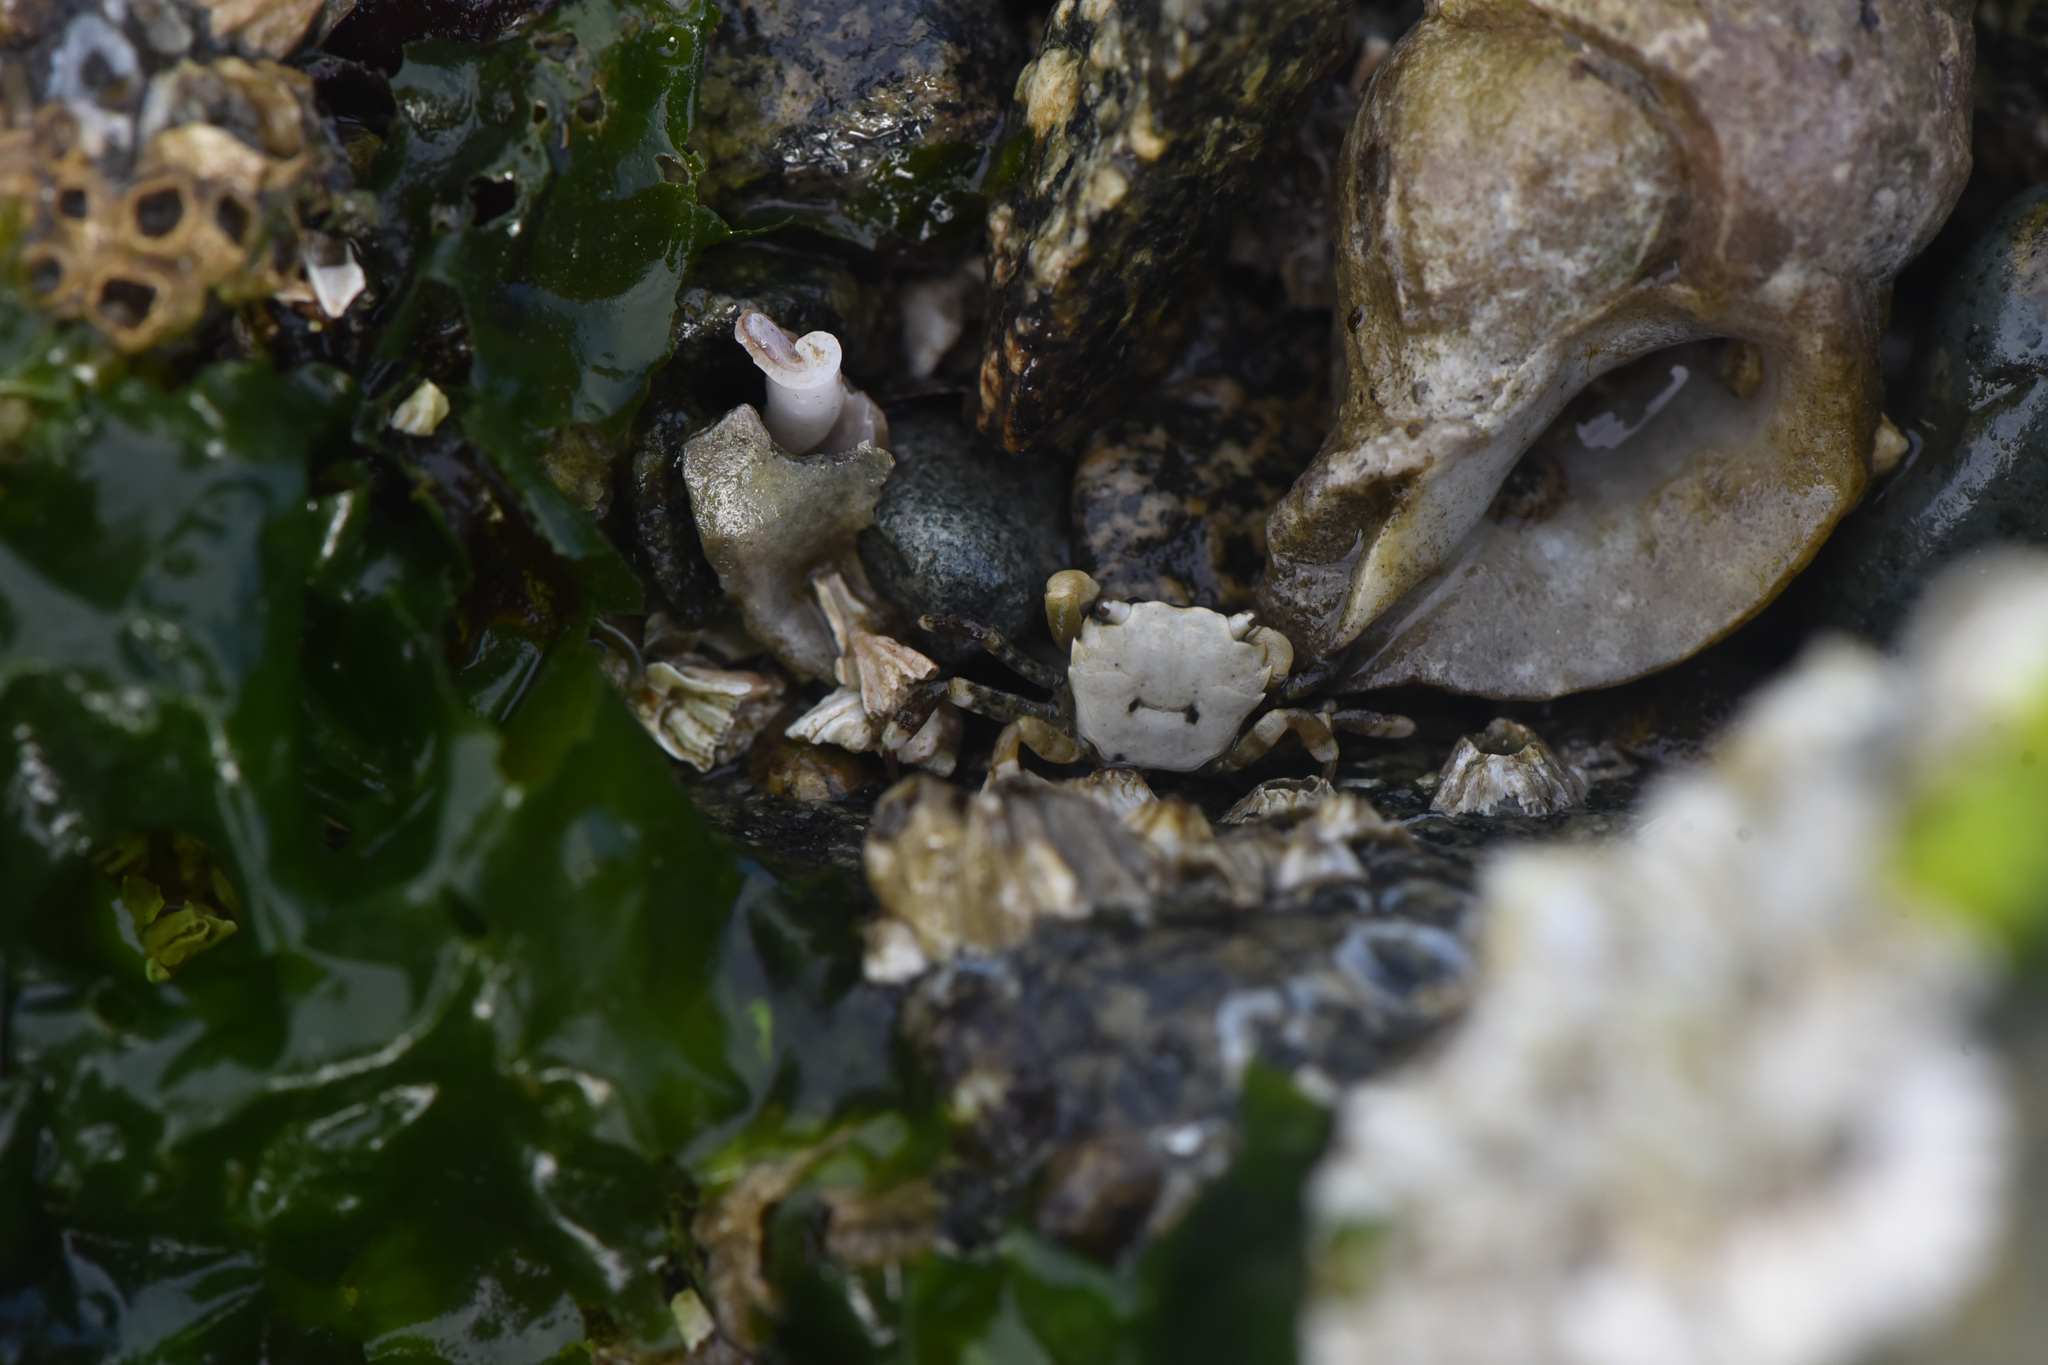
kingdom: Animalia
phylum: Arthropoda
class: Malacostraca
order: Decapoda
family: Varunidae
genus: Hemigrapsus
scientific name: Hemigrapsus oregonensis
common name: Yellow shore crab
